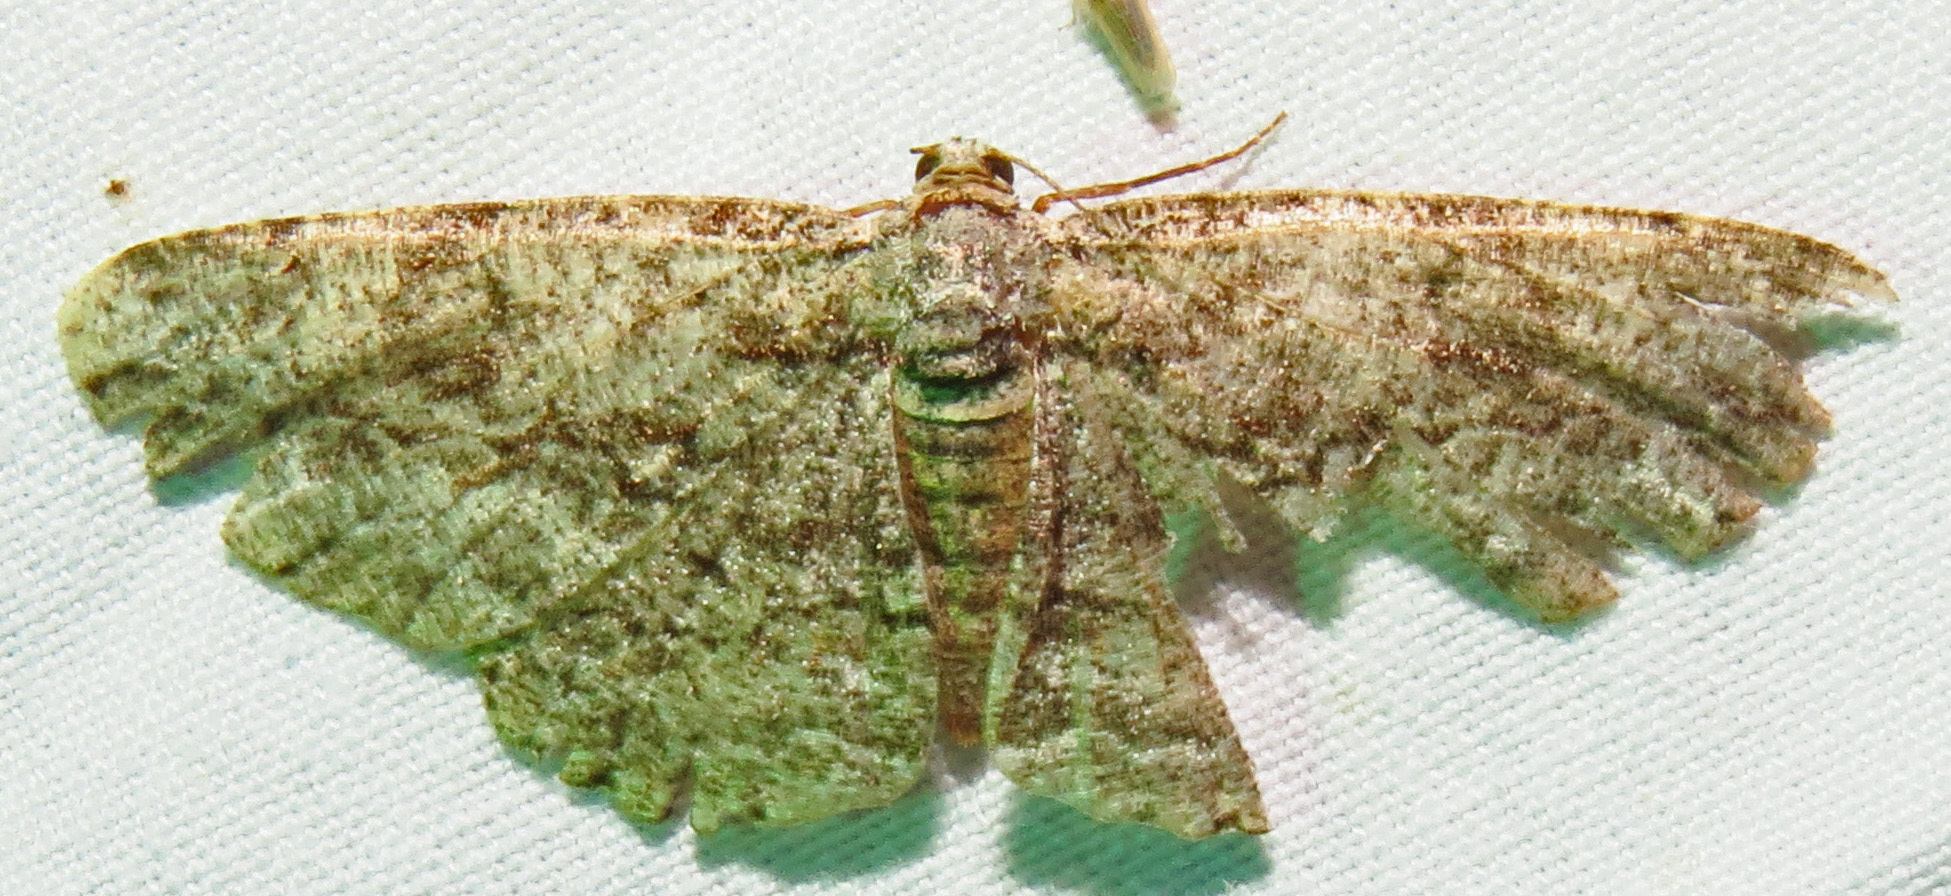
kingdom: Animalia
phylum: Arthropoda
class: Insecta
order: Lepidoptera
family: Geometridae
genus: Anavitrinella
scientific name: Anavitrinella pampinaria
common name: Common gray
